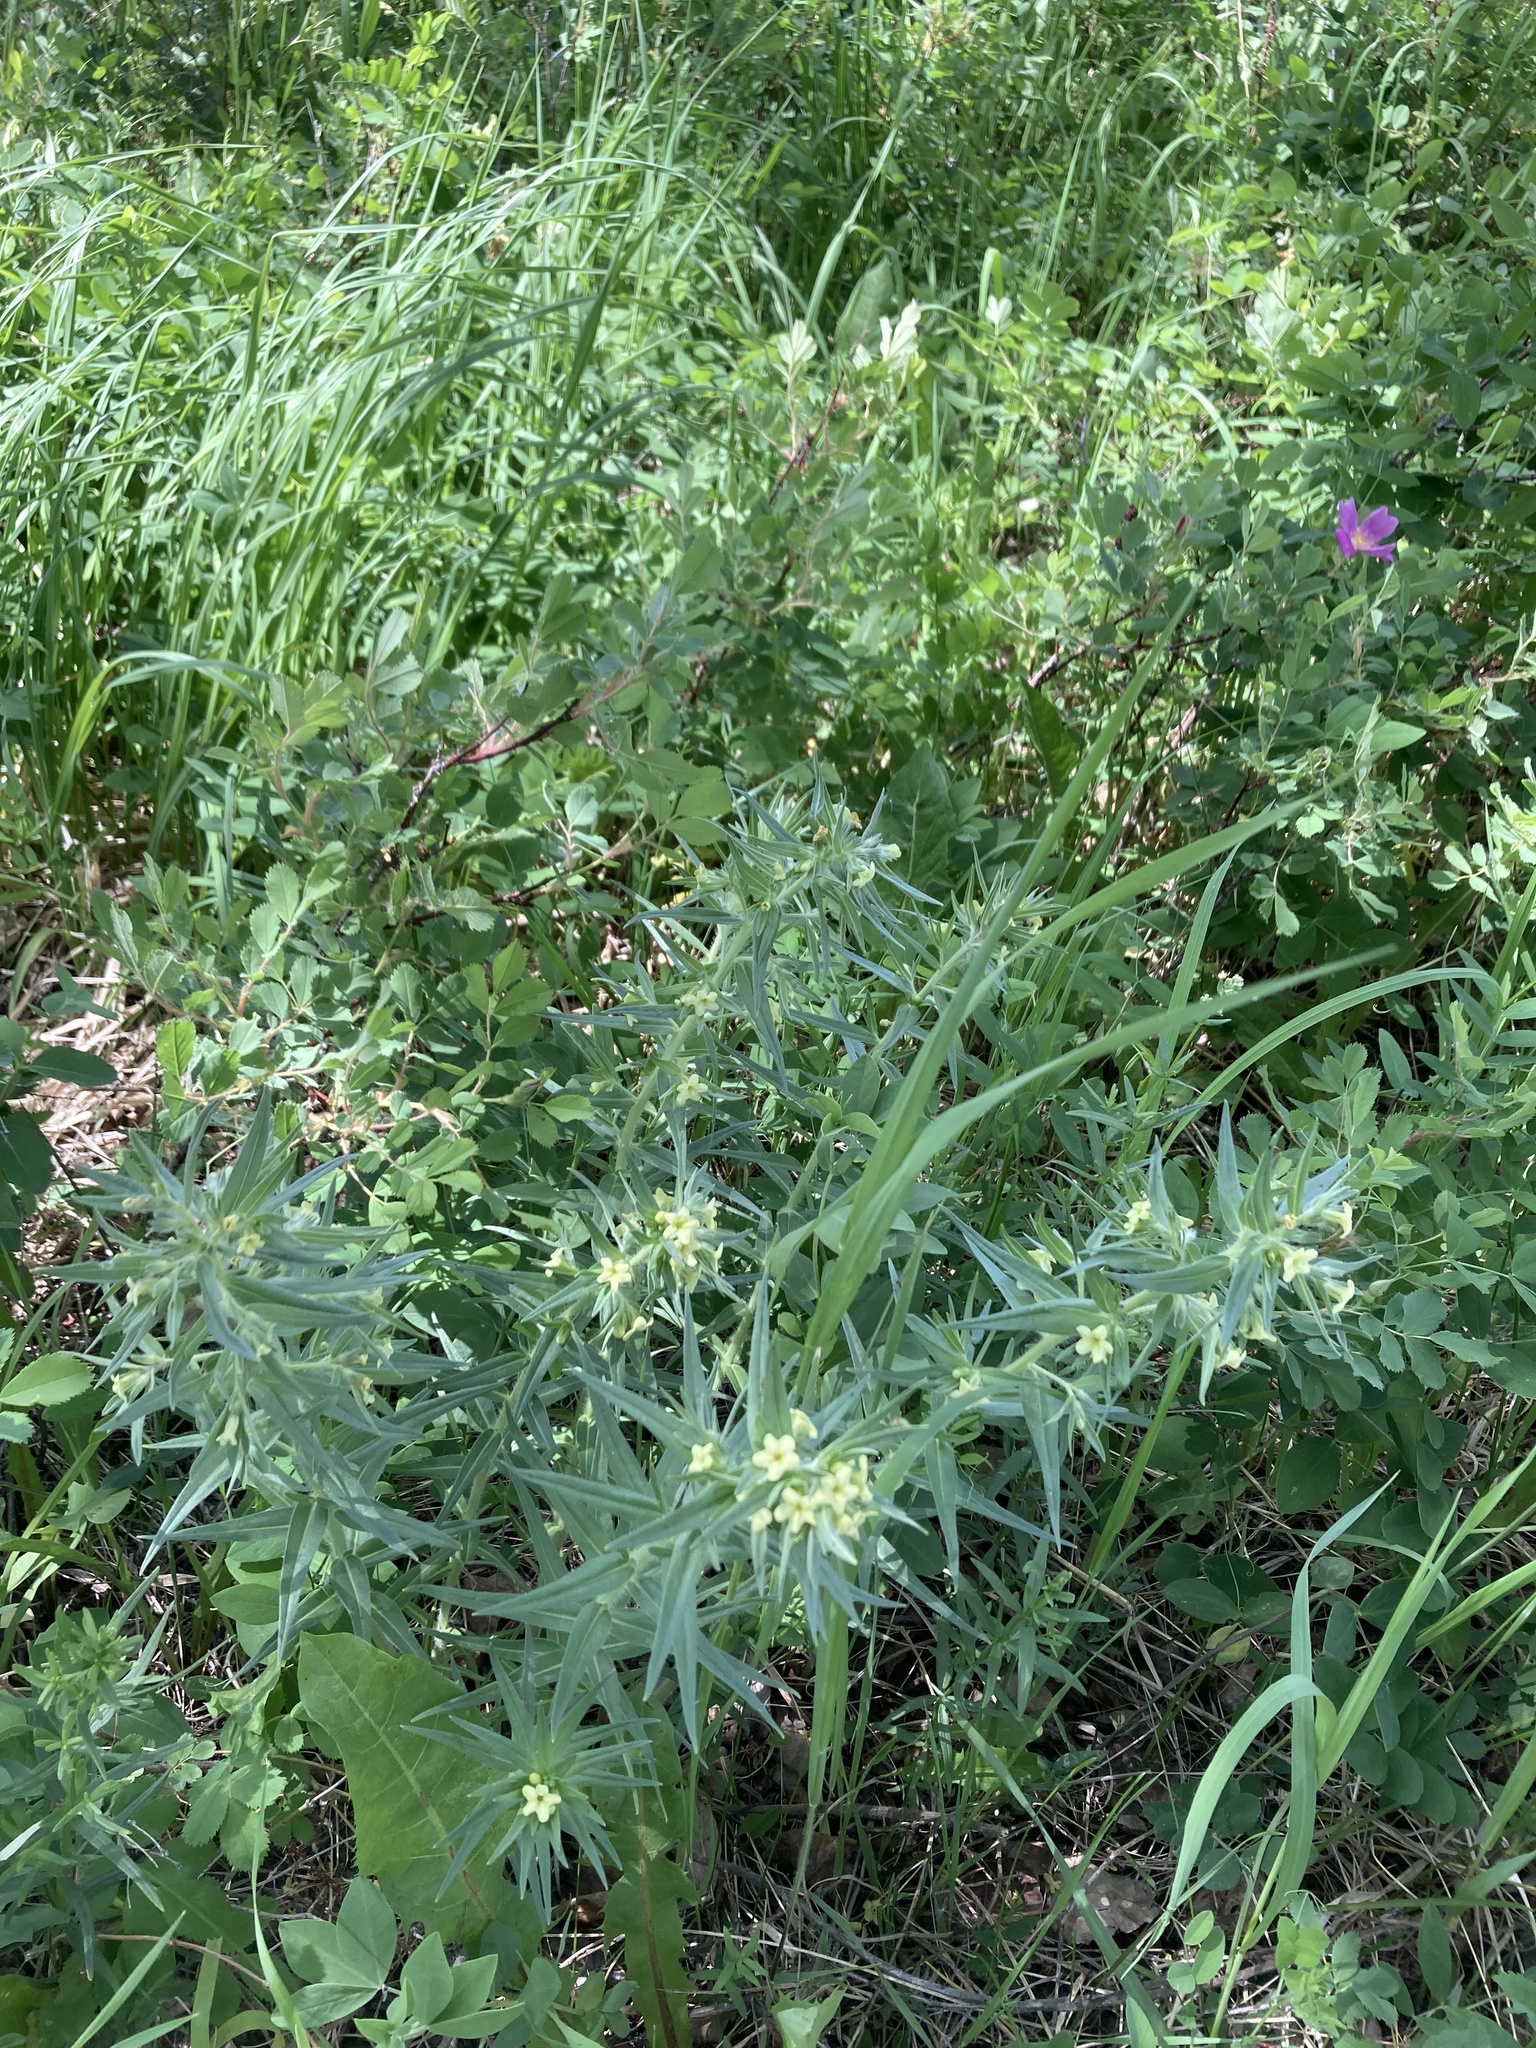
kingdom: Plantae
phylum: Tracheophyta
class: Magnoliopsida
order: Boraginales
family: Boraginaceae
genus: Lithospermum
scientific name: Lithospermum ruderale
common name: Western gromwell
